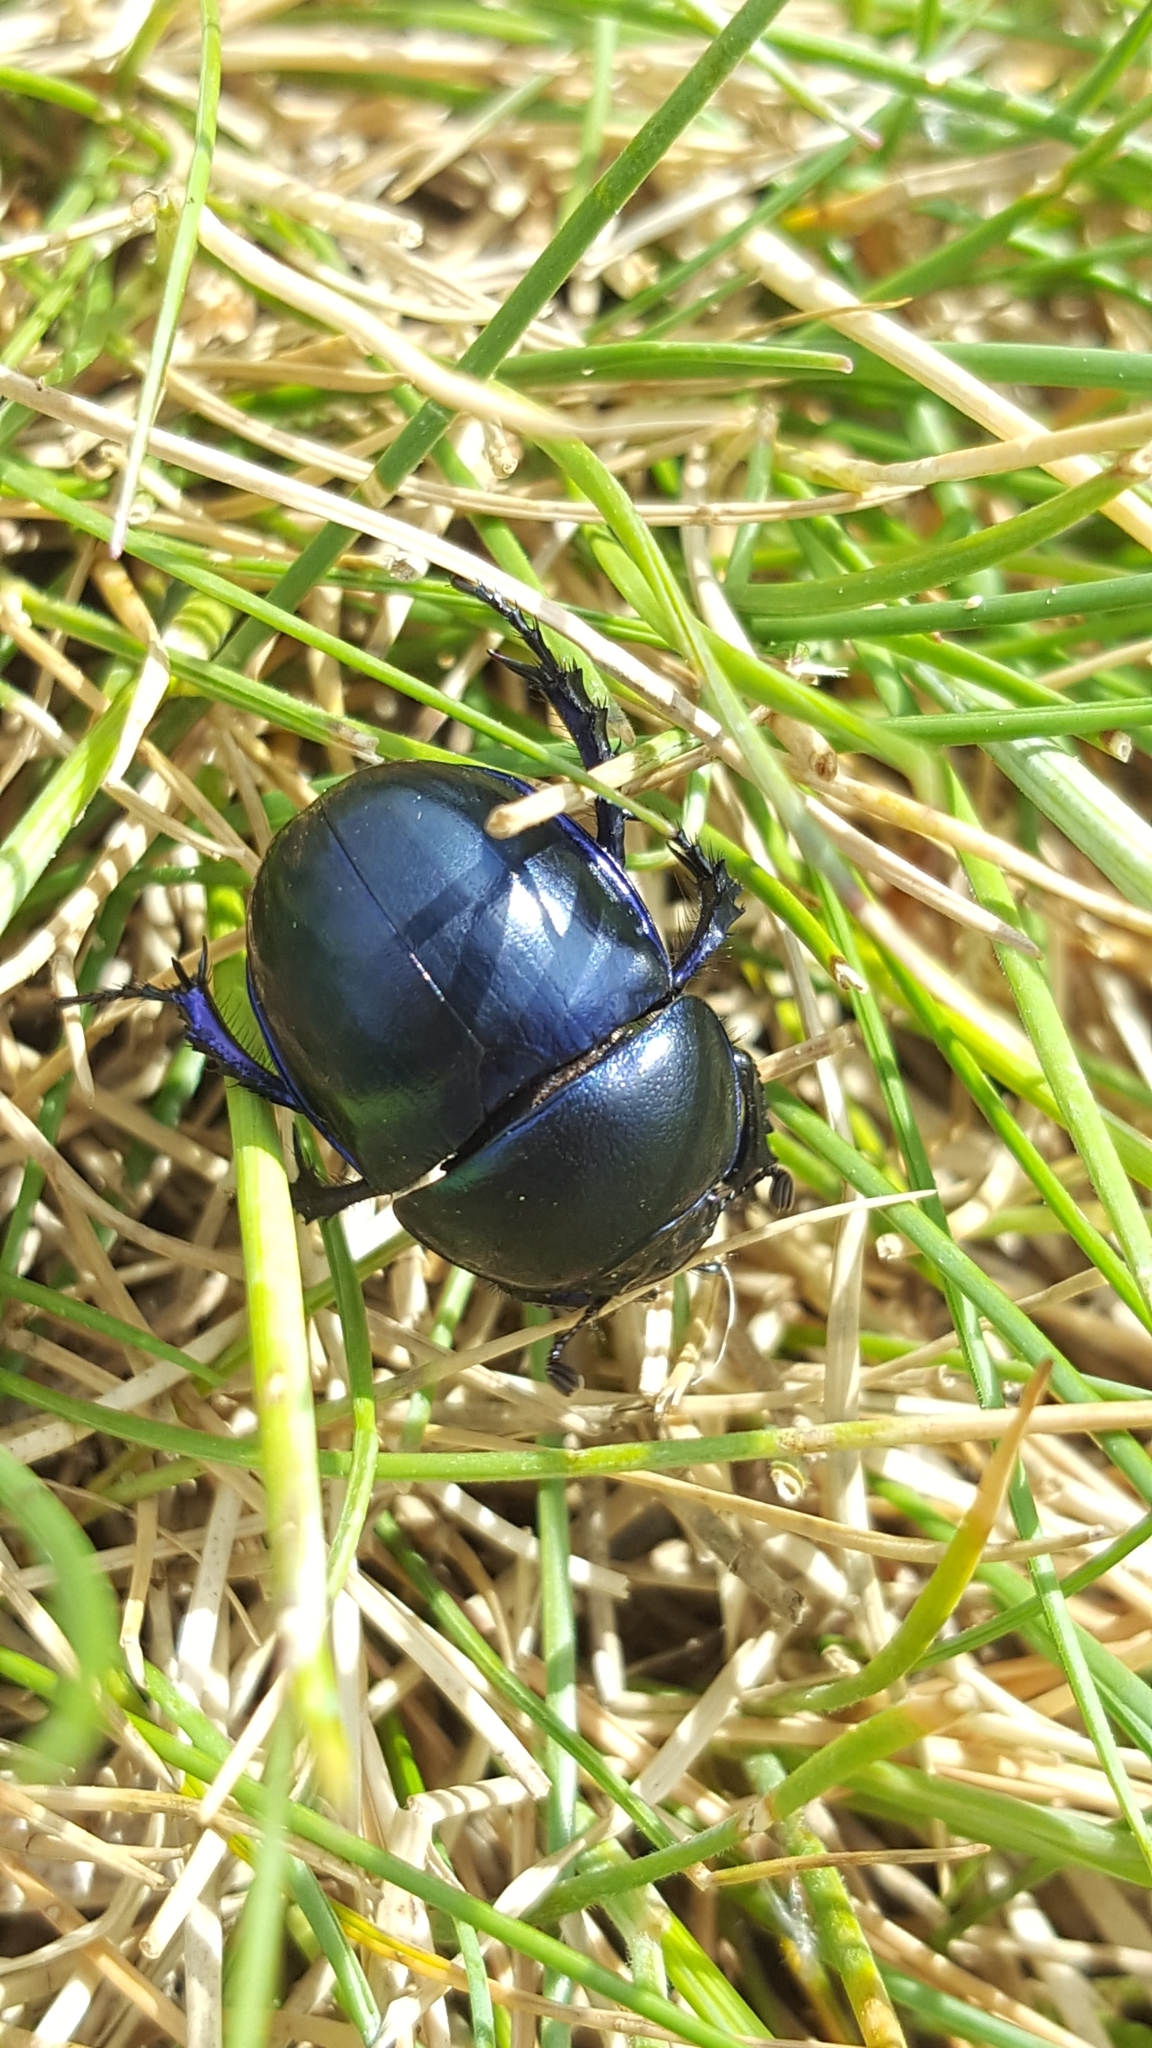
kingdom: Animalia
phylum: Arthropoda
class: Insecta
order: Coleoptera
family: Geotrupidae
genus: Trypocopris
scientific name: Trypocopris vernalis
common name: Spring dumbledor
